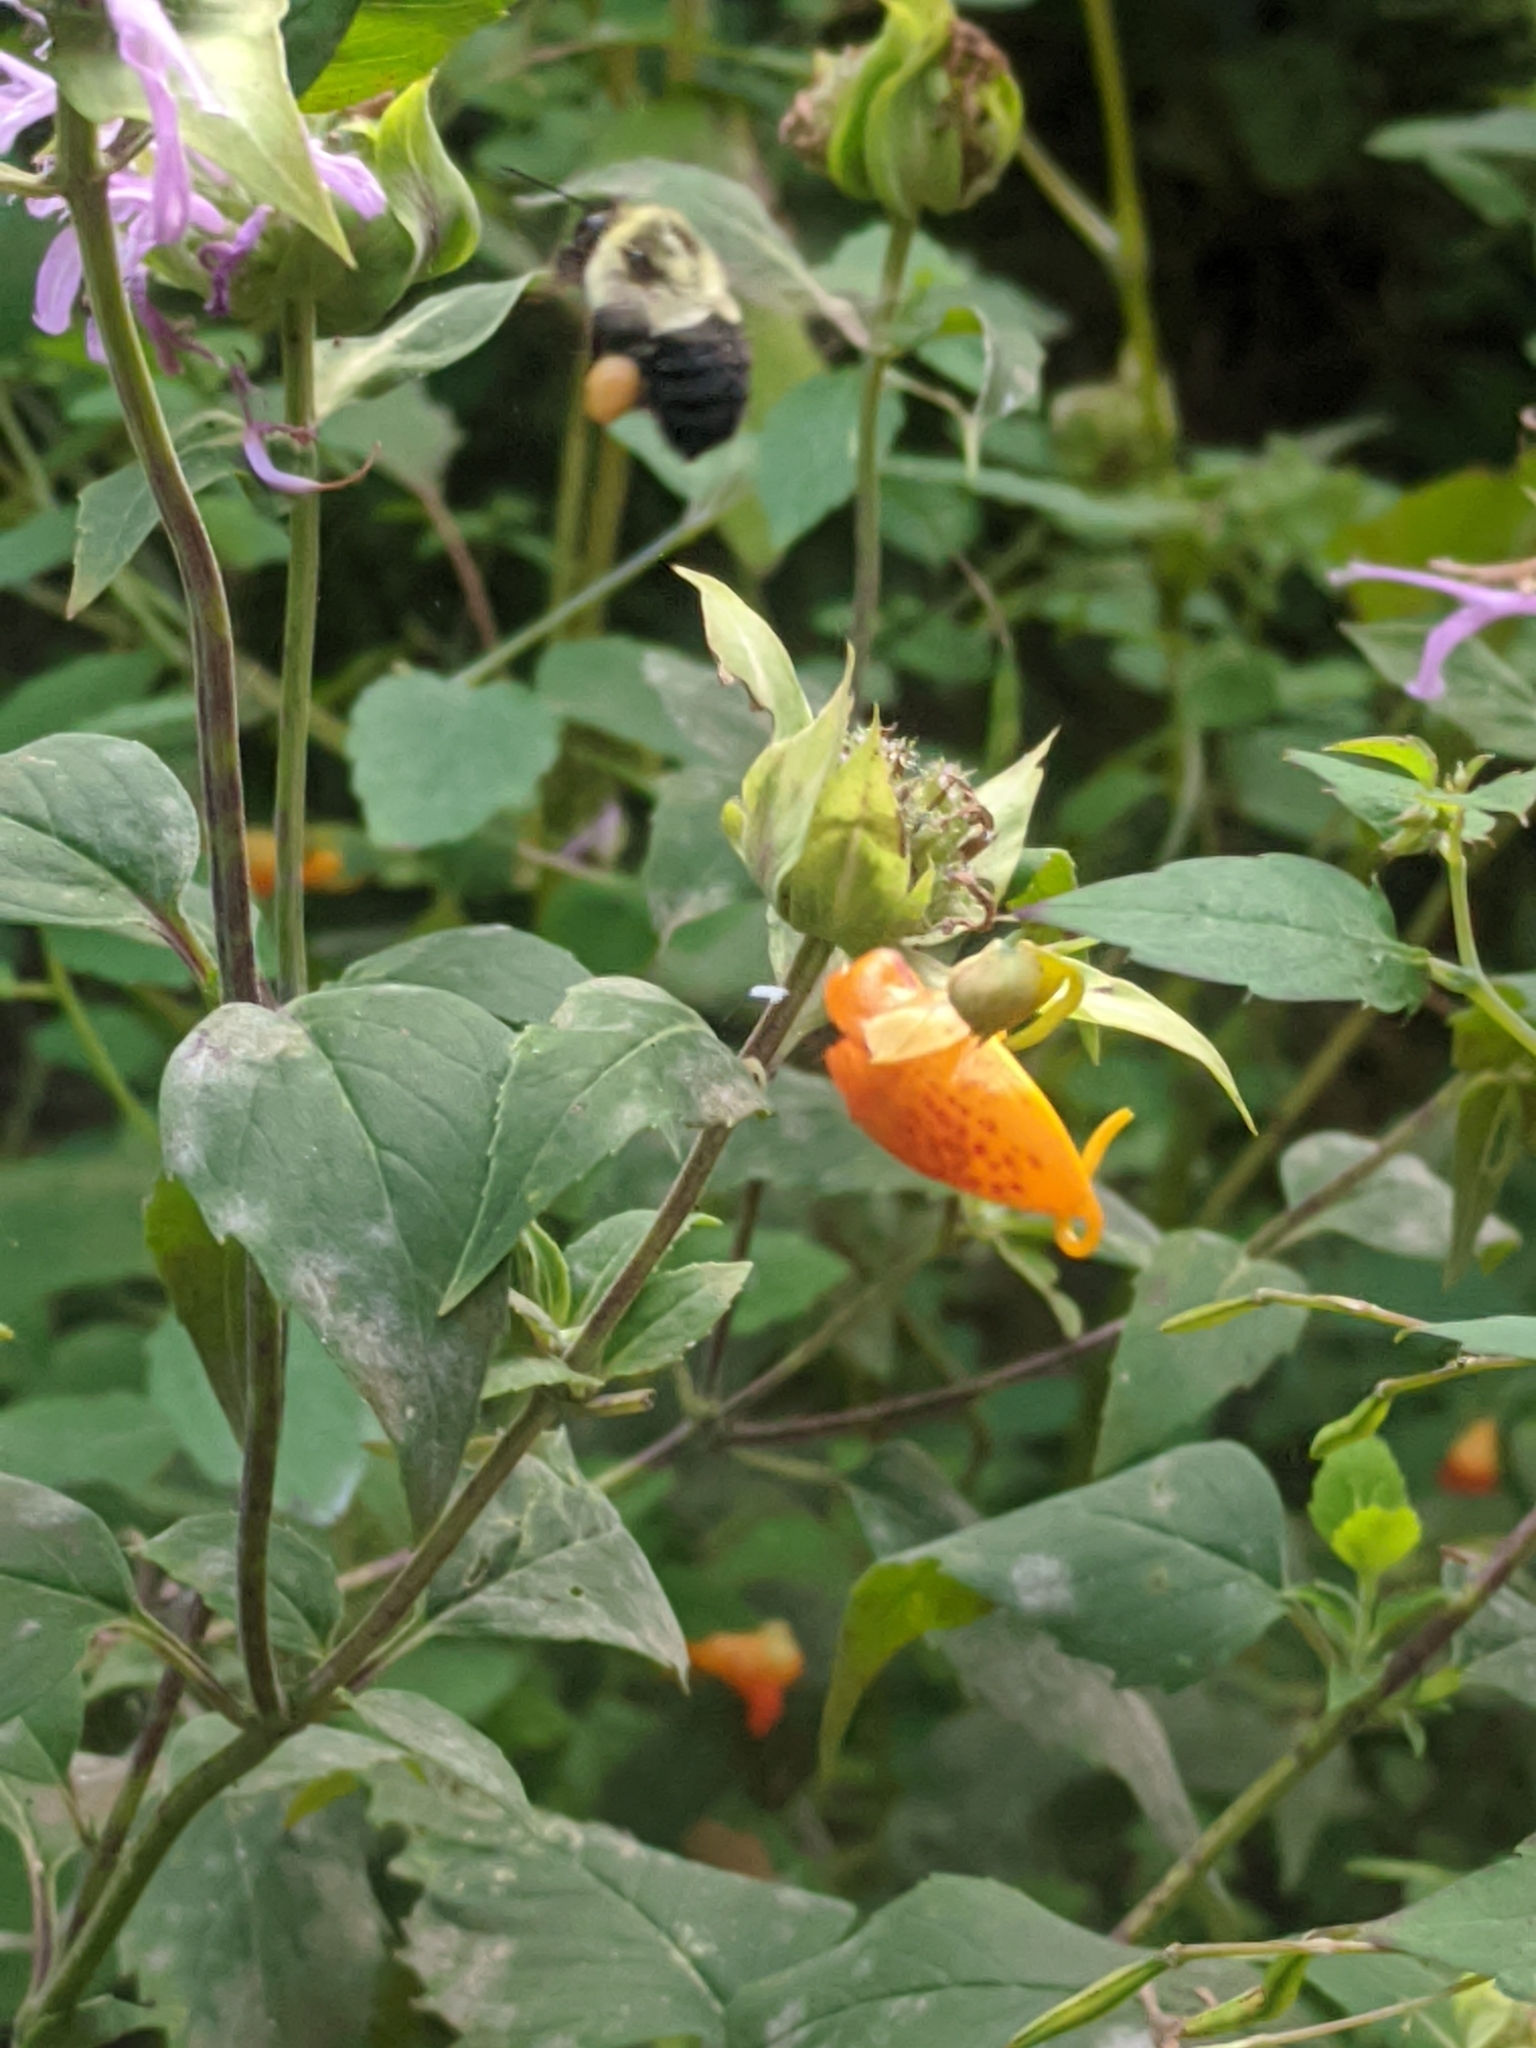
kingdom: Animalia
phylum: Arthropoda
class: Insecta
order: Hymenoptera
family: Apidae
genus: Bombus
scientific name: Bombus impatiens
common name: Common eastern bumble bee
